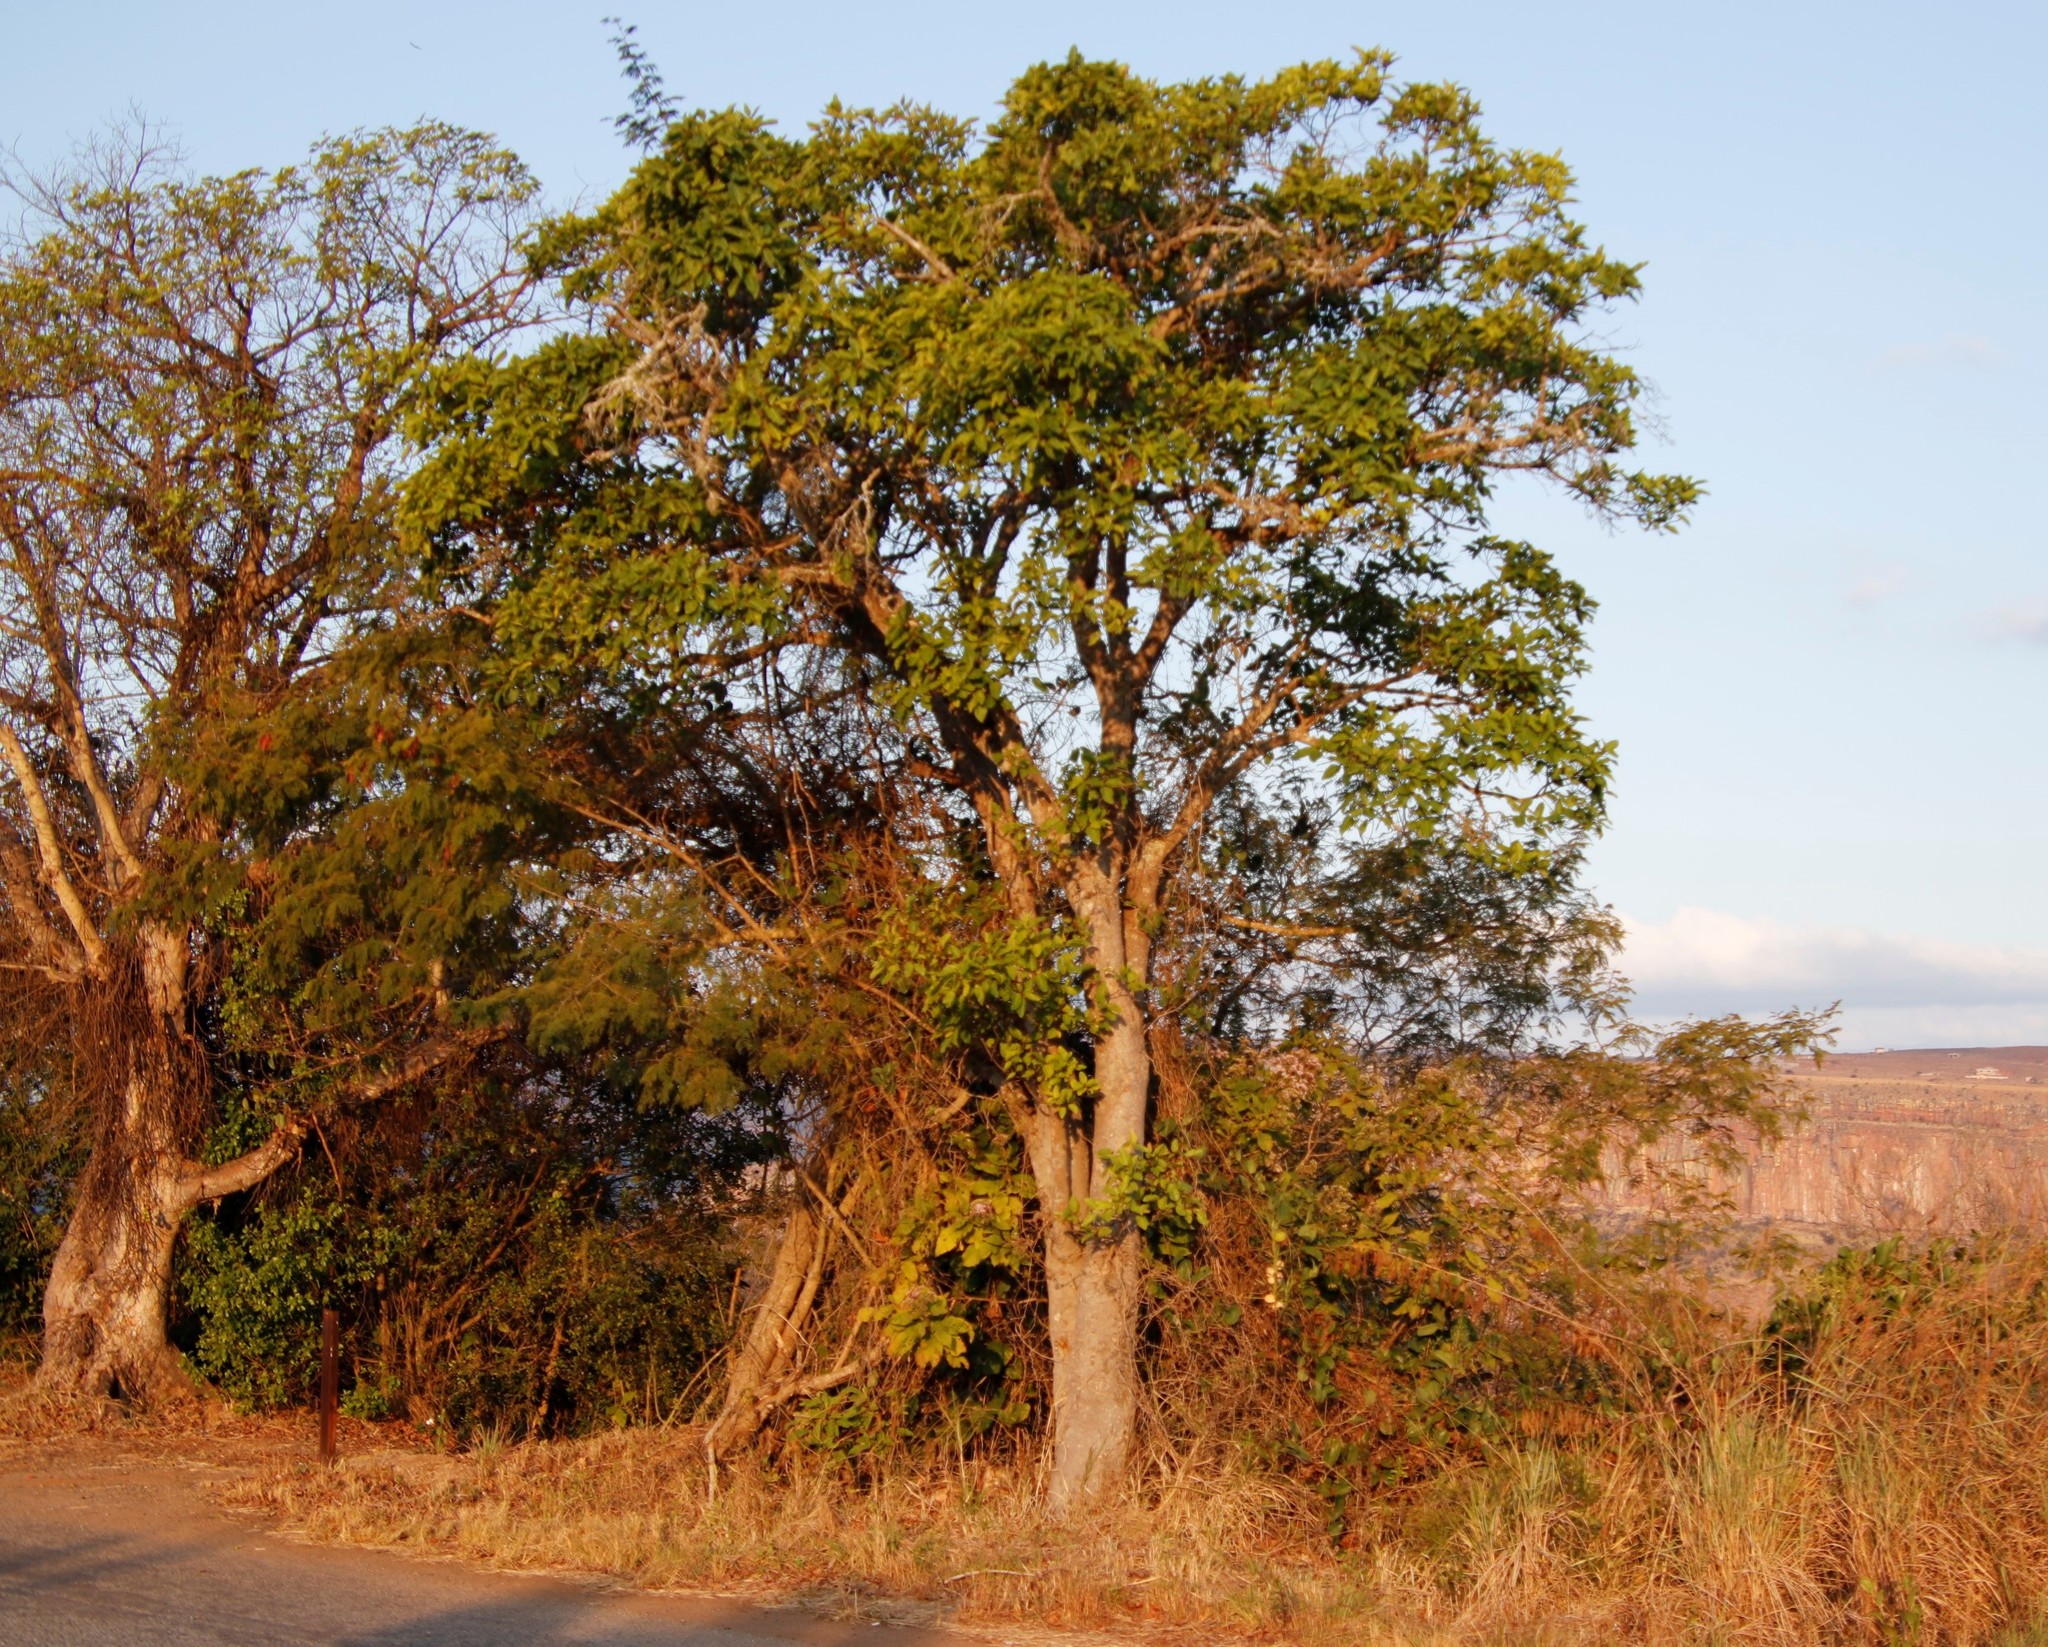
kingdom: Plantae
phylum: Tracheophyta
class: Magnoliopsida
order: Rosales
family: Moraceae
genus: Ficus
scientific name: Ficus sur
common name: Cape fig
